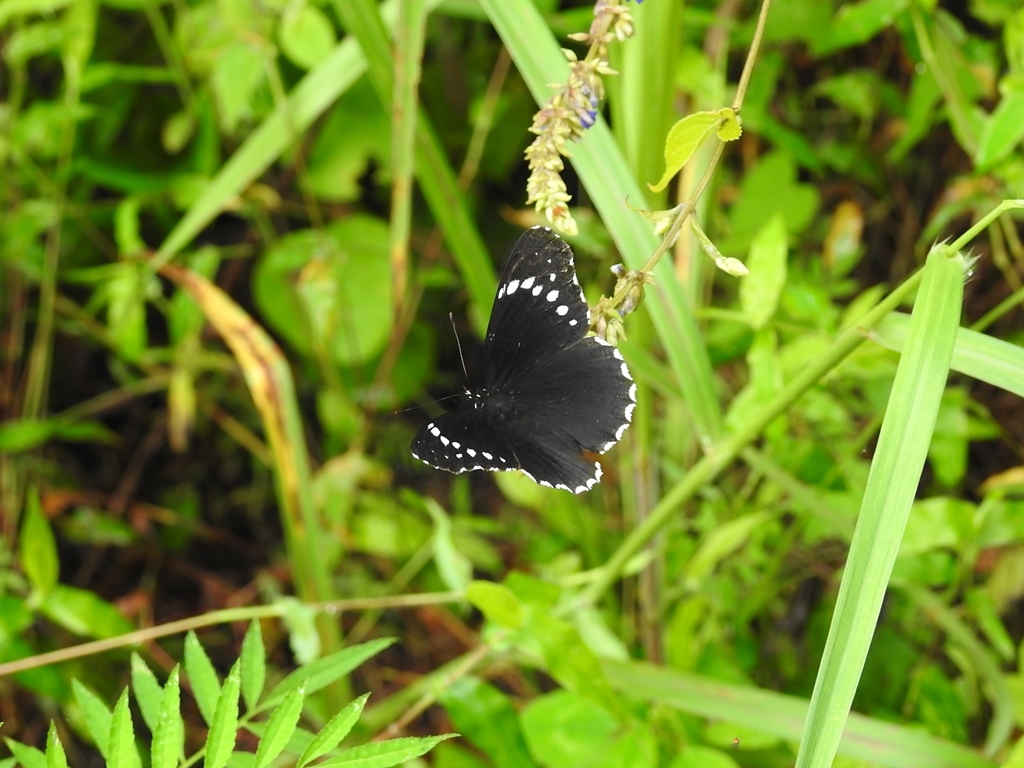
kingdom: Animalia
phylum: Arthropoda
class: Insecta
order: Lepidoptera
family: Nymphalidae
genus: Chlosyne
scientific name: Chlosyne hippodrome
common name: Simple patch
